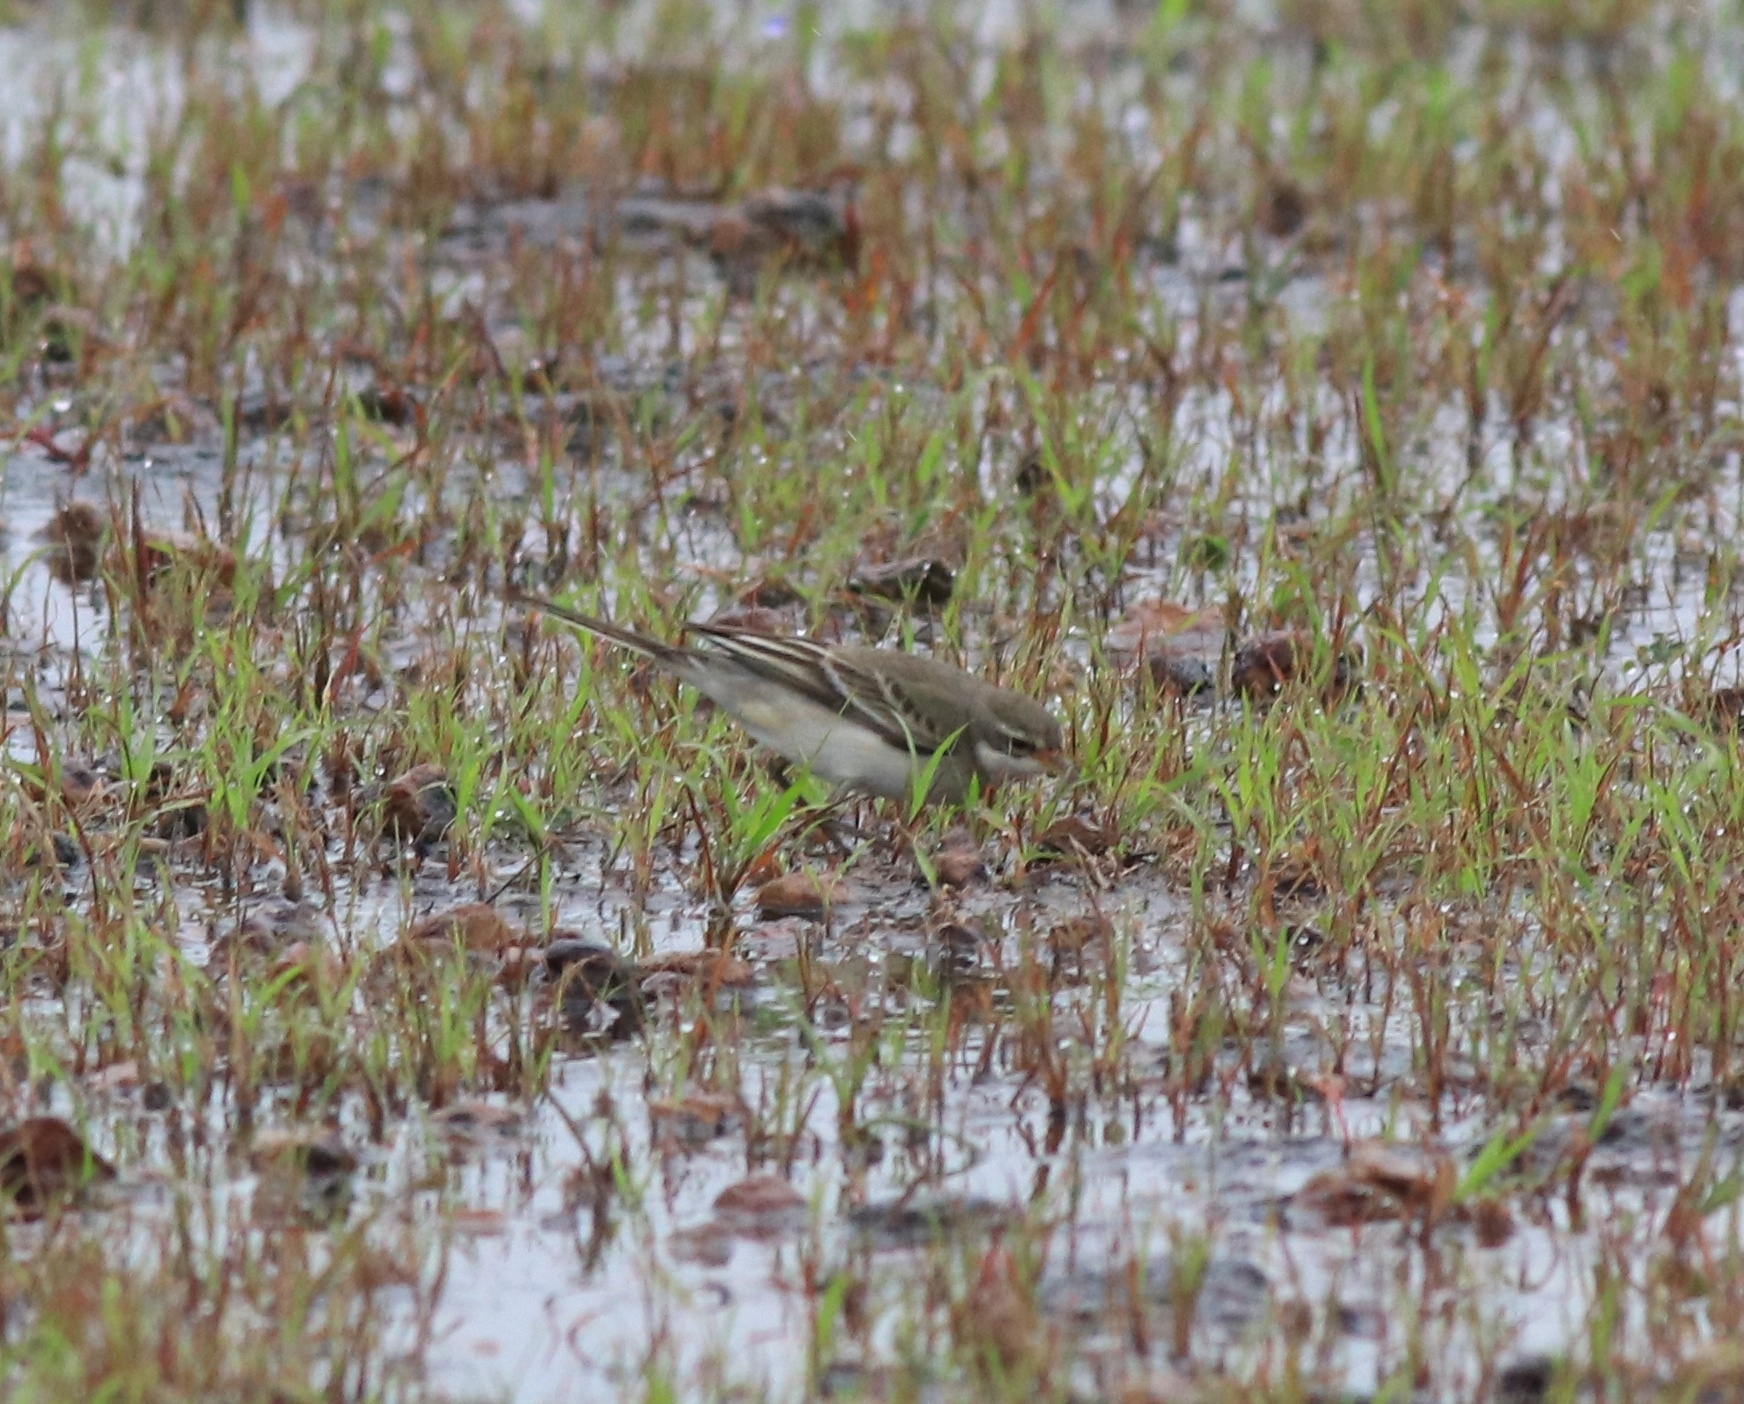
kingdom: Animalia
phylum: Chordata
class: Aves
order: Passeriformes
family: Motacillidae
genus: Motacilla
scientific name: Motacilla flava
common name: Western yellow wagtail
